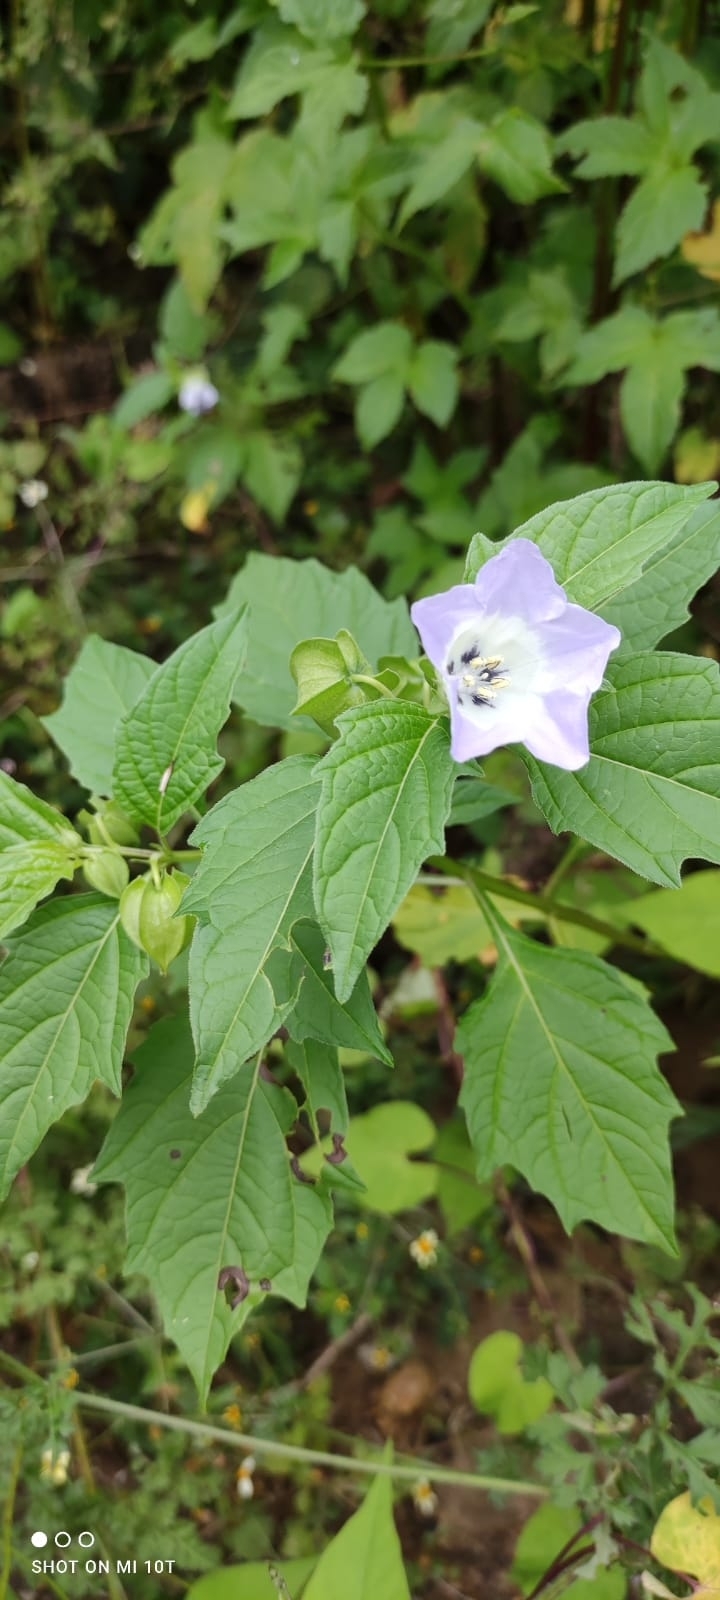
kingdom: Plantae
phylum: Tracheophyta
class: Magnoliopsida
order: Solanales
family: Solanaceae
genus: Nicandra
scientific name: Nicandra physalodes
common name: Apple-of-peru
